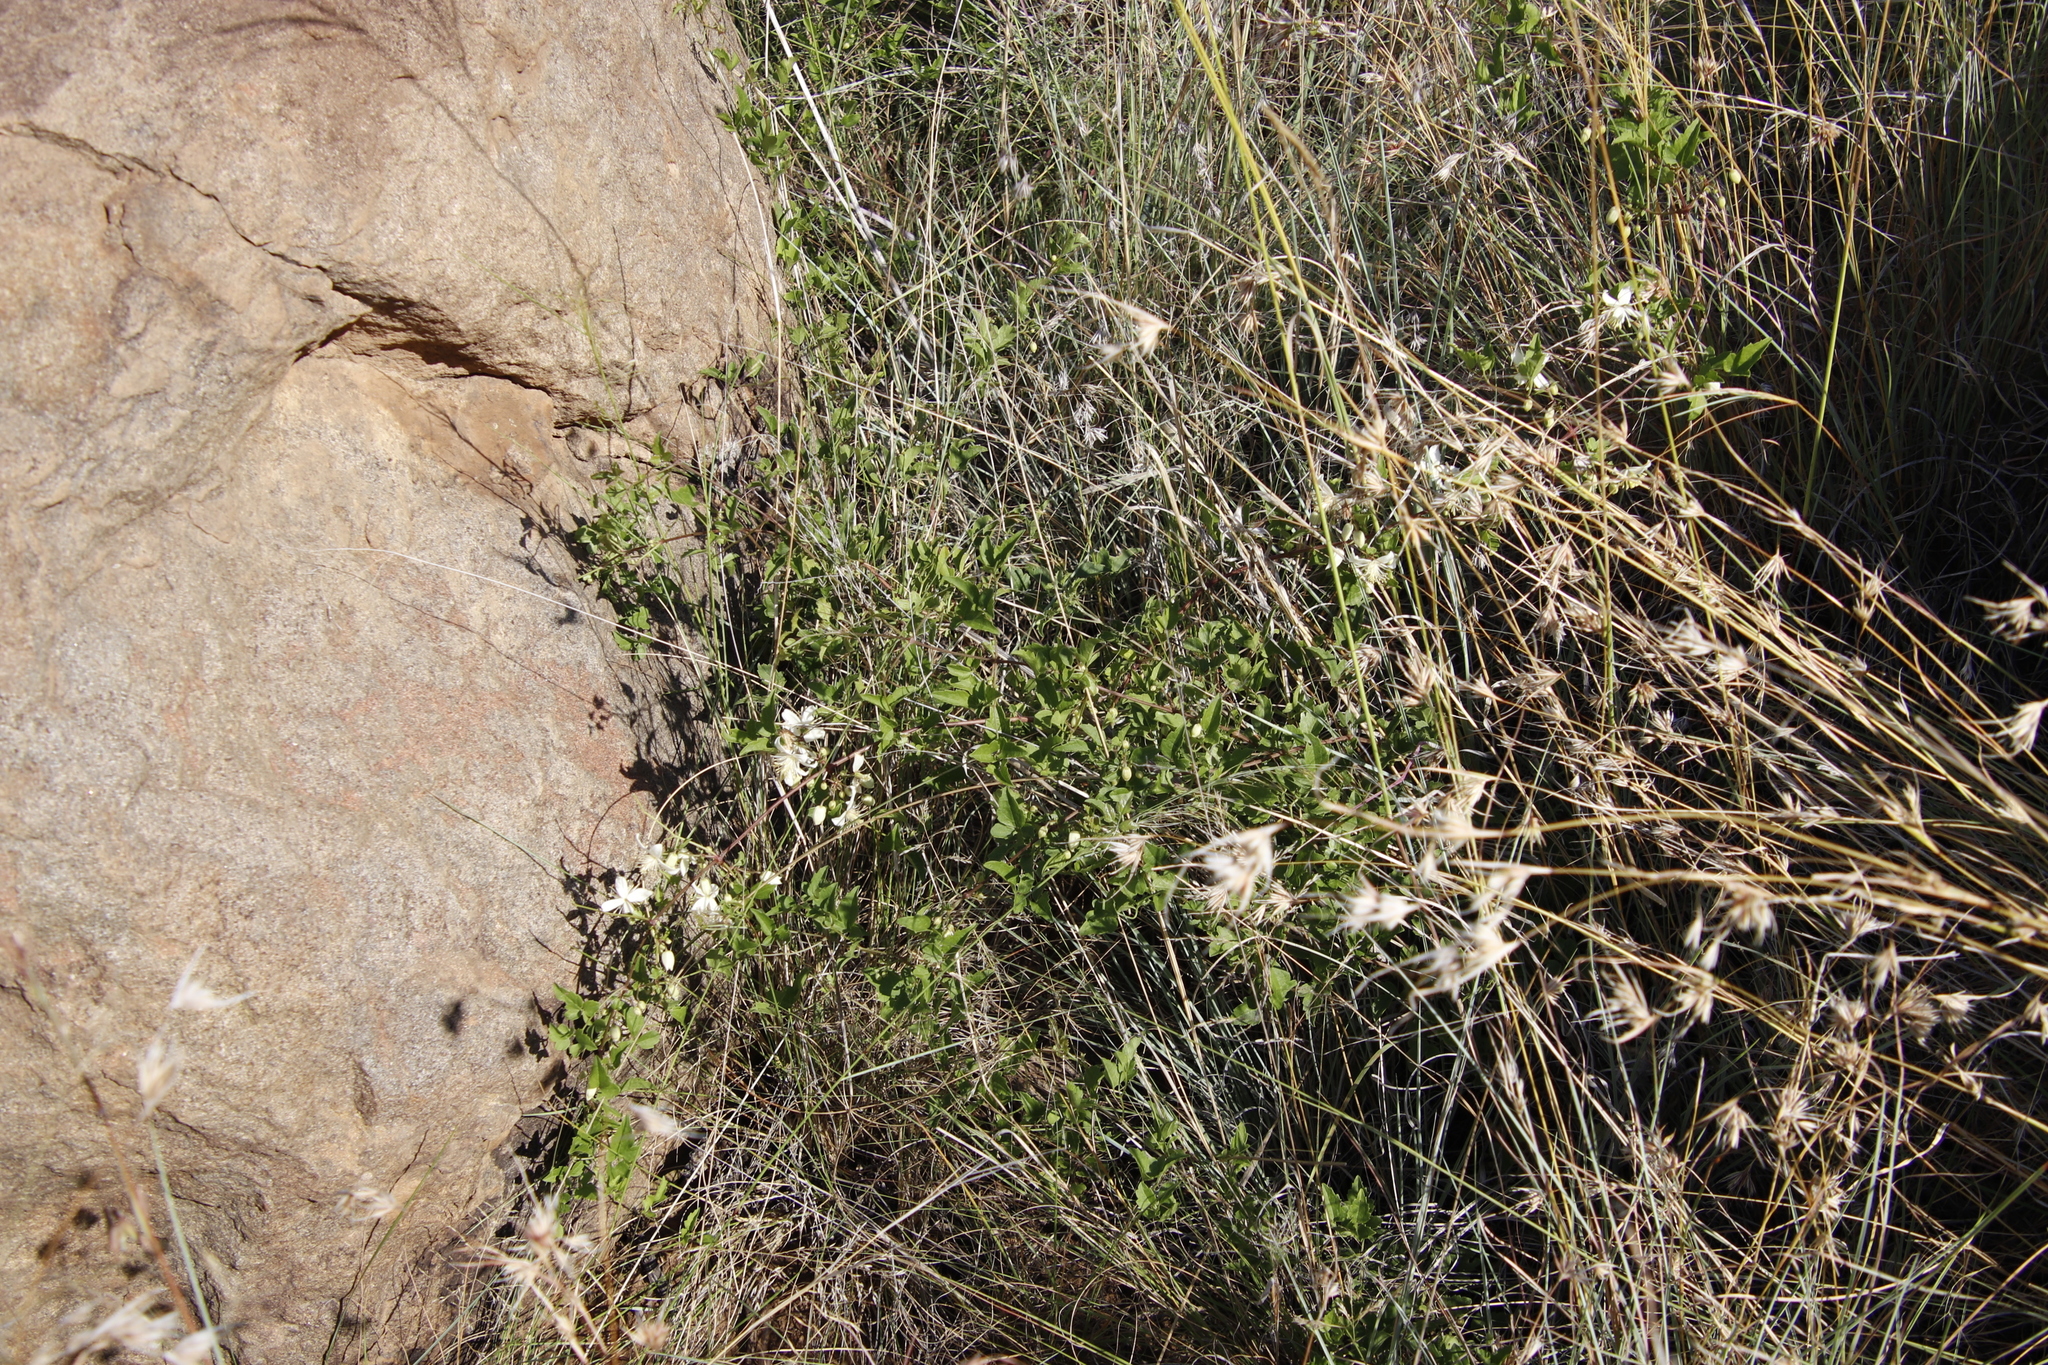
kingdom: Plantae
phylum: Tracheophyta
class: Liliopsida
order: Poales
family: Poaceae
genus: Themeda
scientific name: Themeda triandra
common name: Kangaroo grass
